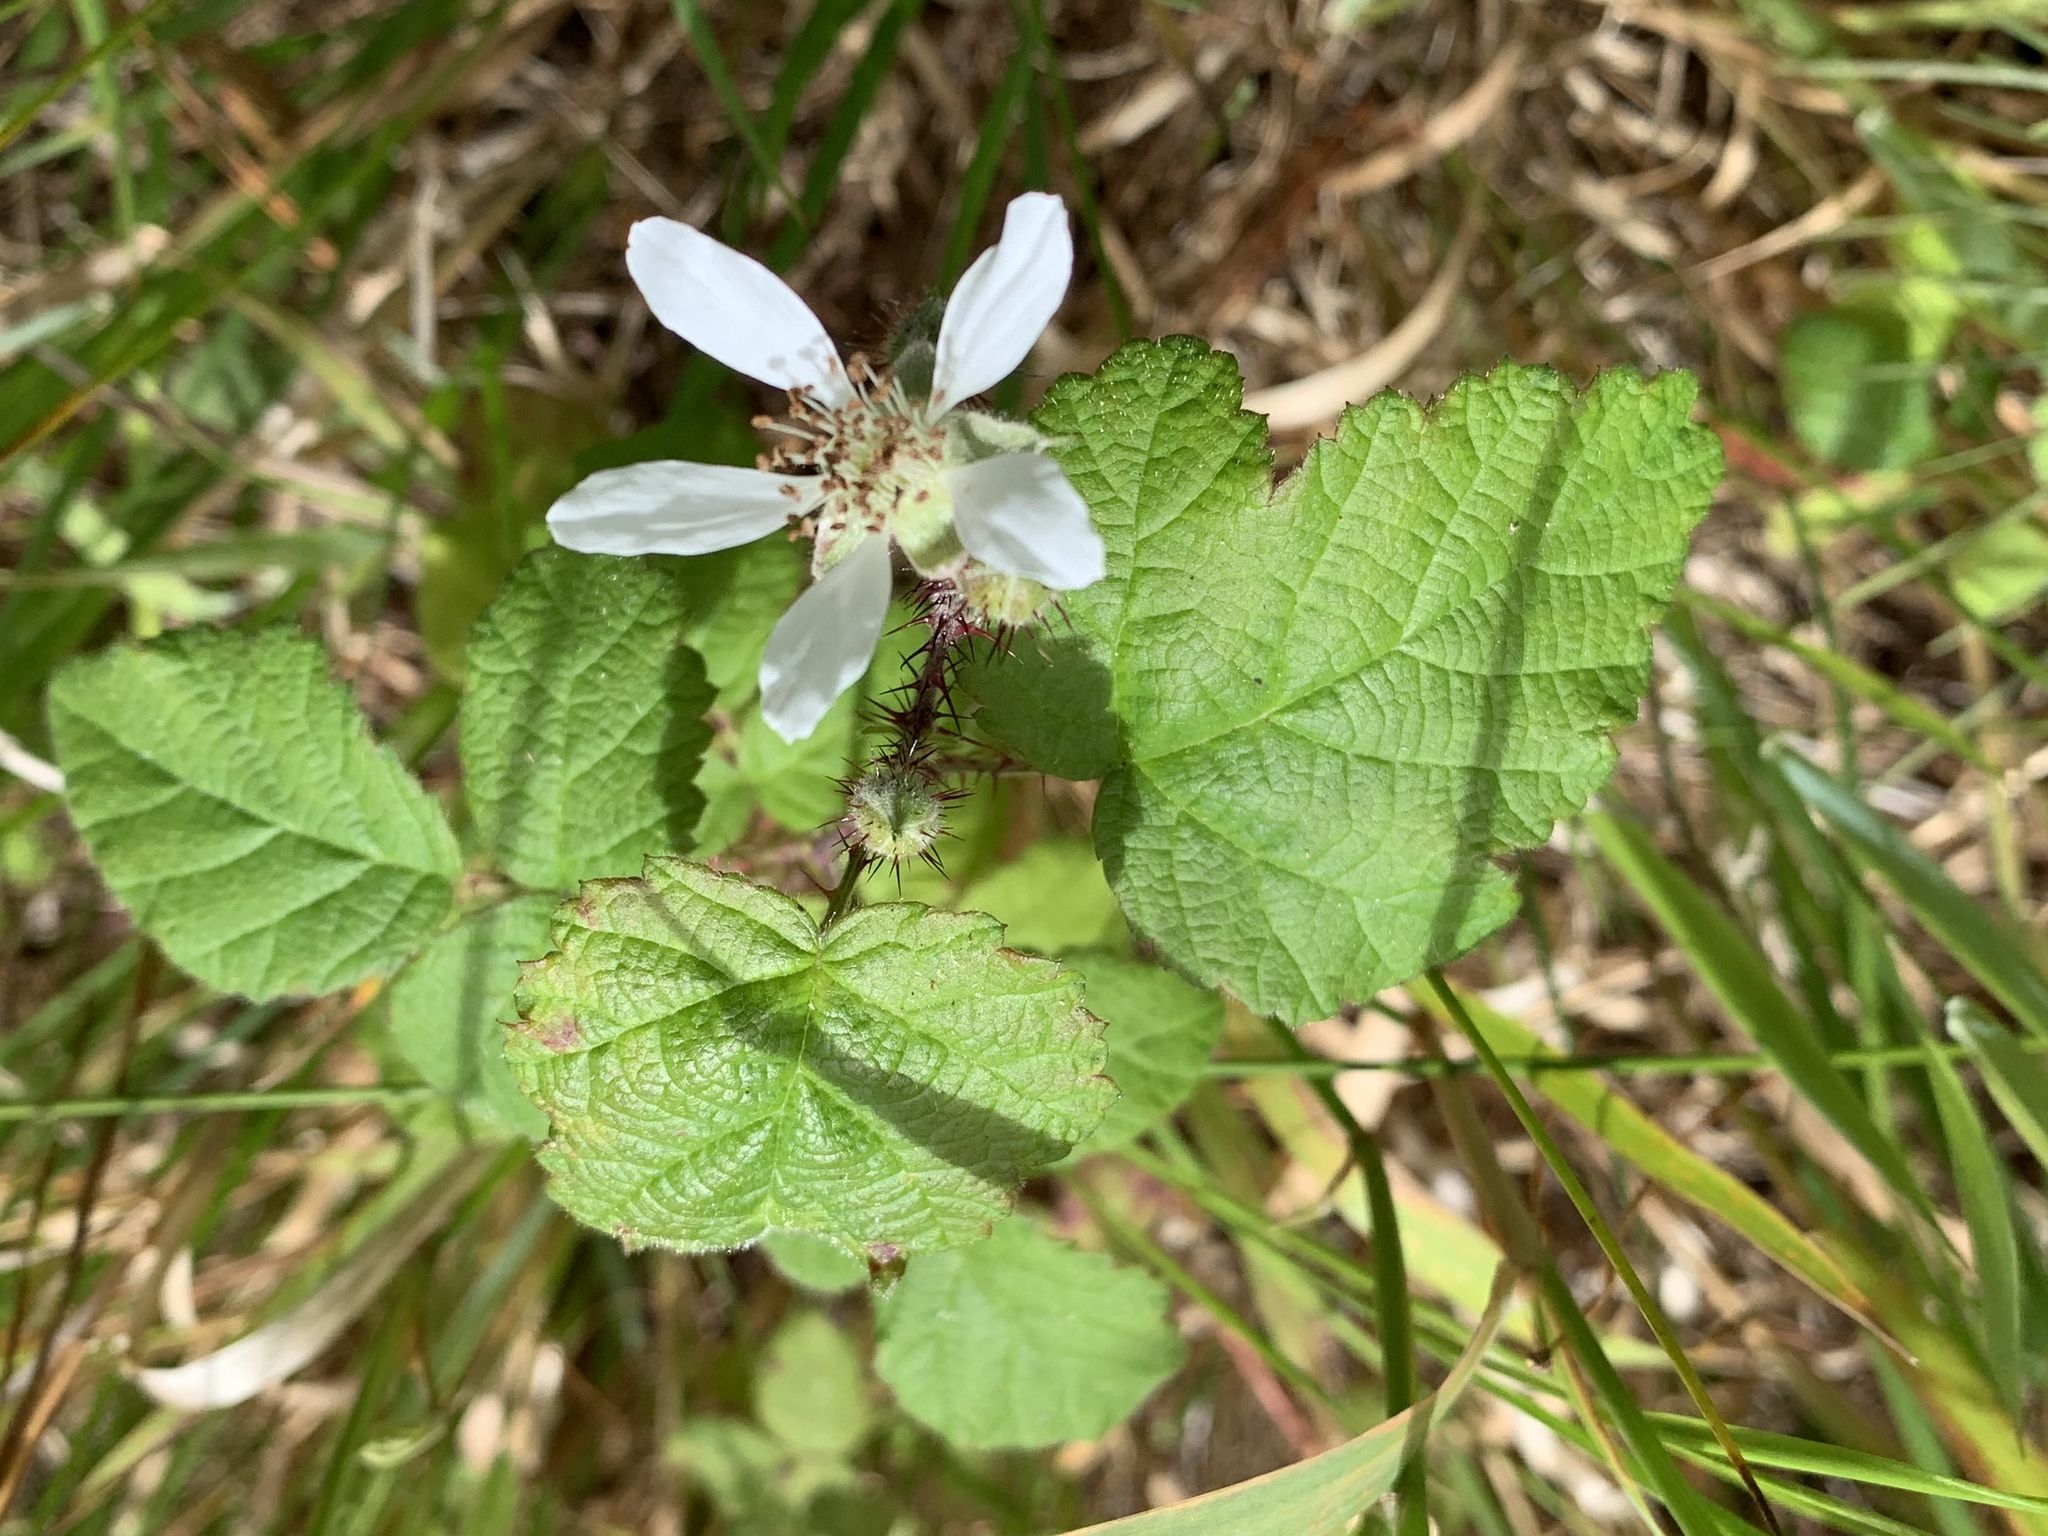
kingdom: Plantae
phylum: Tracheophyta
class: Magnoliopsida
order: Rosales
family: Rosaceae
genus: Rubus
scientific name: Rubus ursinus
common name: Pacific blackberry
